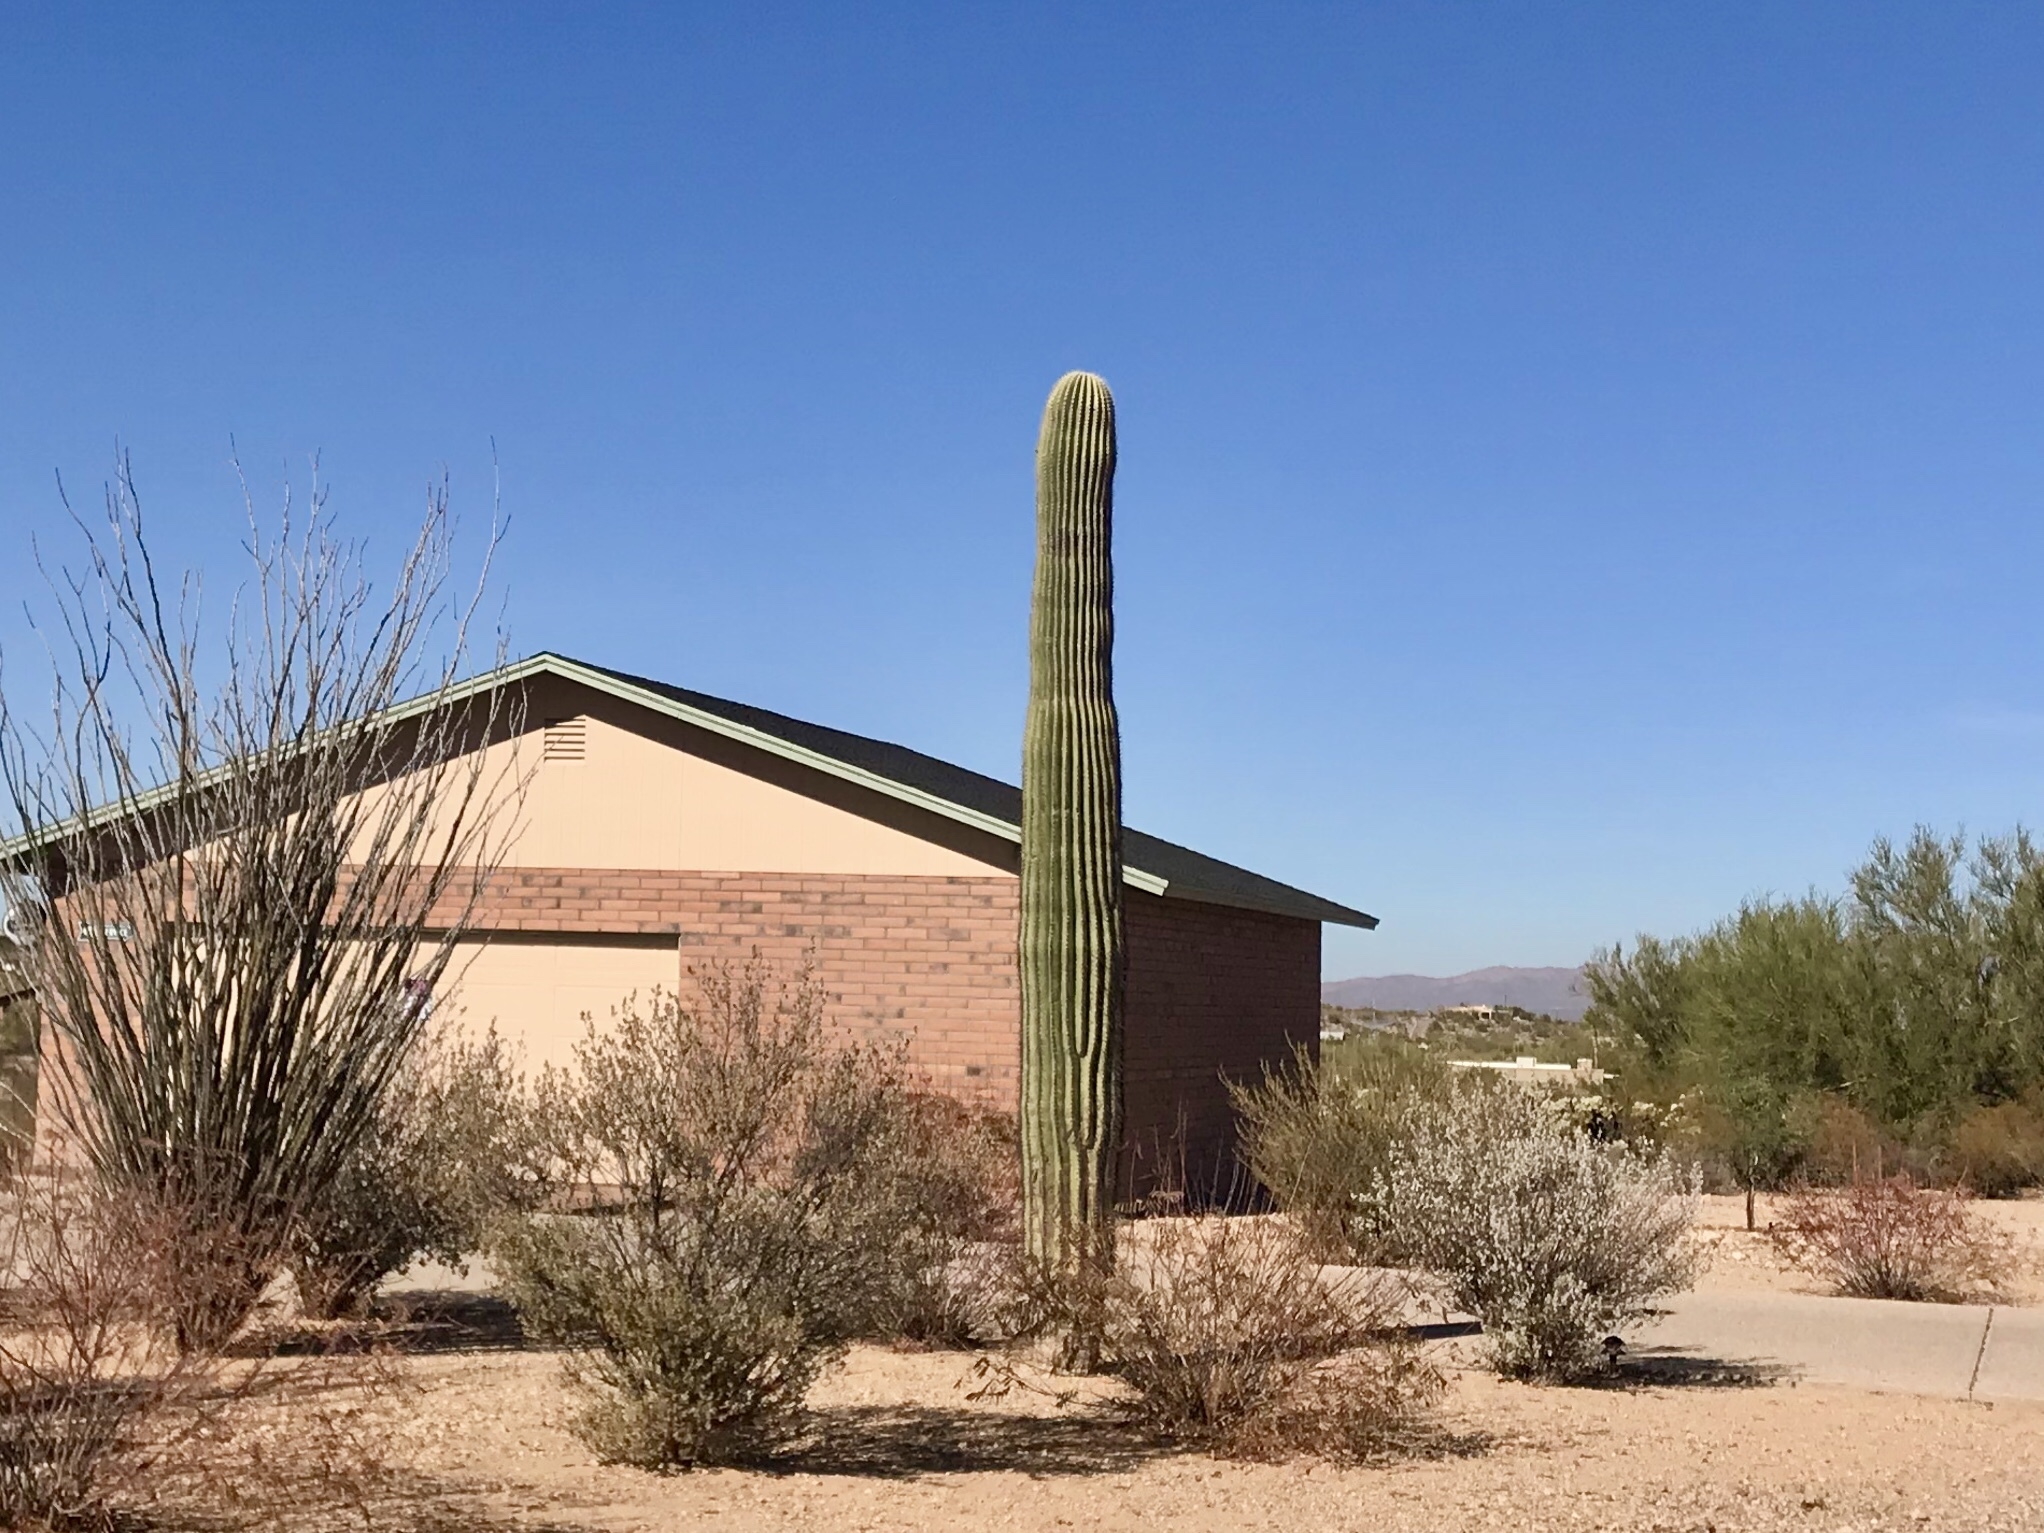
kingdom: Plantae
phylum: Tracheophyta
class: Magnoliopsida
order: Caryophyllales
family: Cactaceae
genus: Carnegiea
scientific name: Carnegiea gigantea
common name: Saguaro
